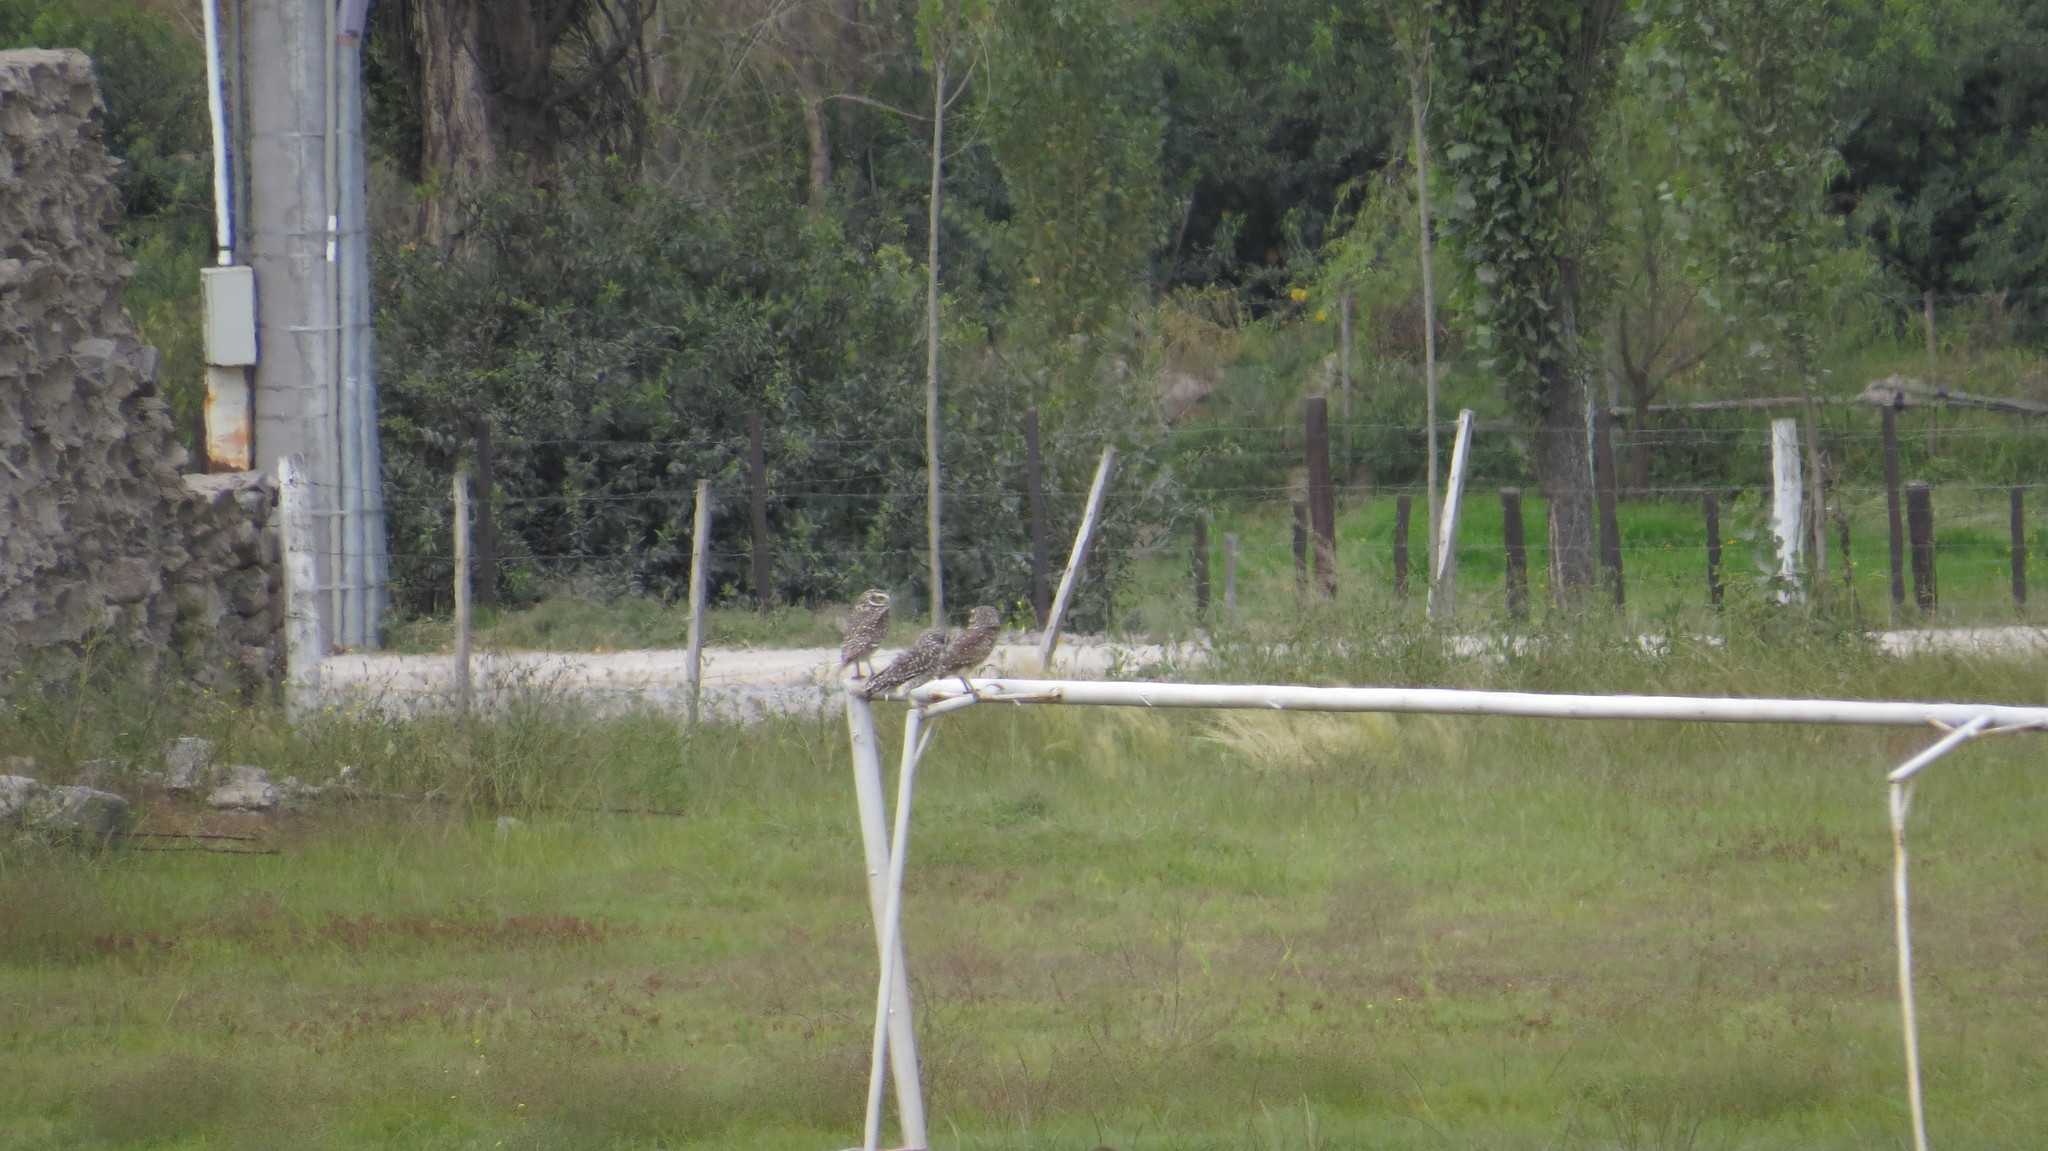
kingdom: Animalia
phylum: Chordata
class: Aves
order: Strigiformes
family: Strigidae
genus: Athene
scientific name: Athene cunicularia
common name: Burrowing owl
